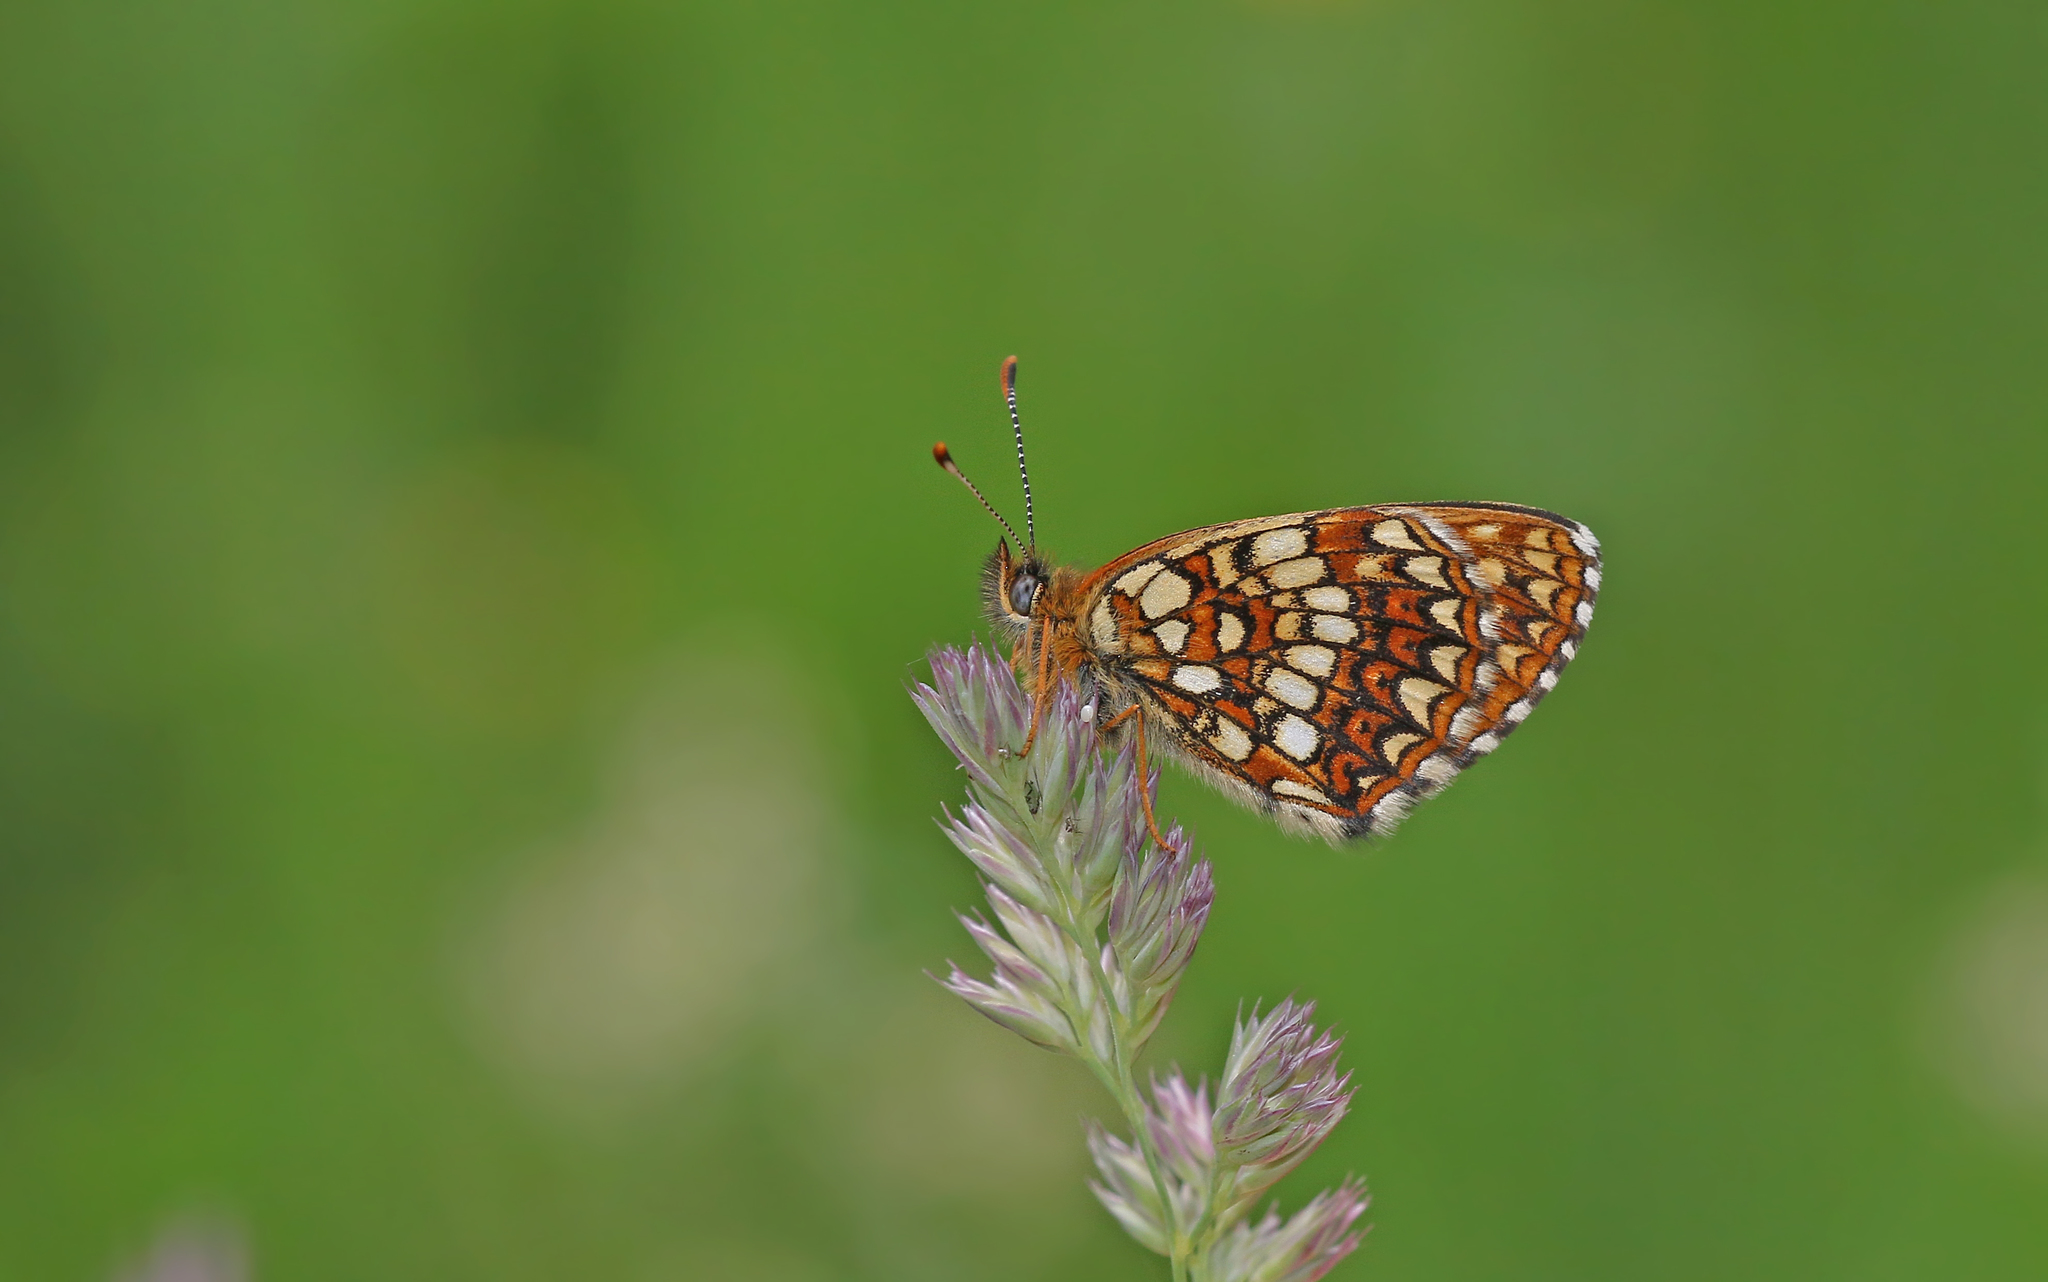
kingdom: Animalia
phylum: Arthropoda
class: Insecta
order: Lepidoptera
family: Nymphalidae
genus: Melitaea
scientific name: Melitaea diamina
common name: False heath fritillary
